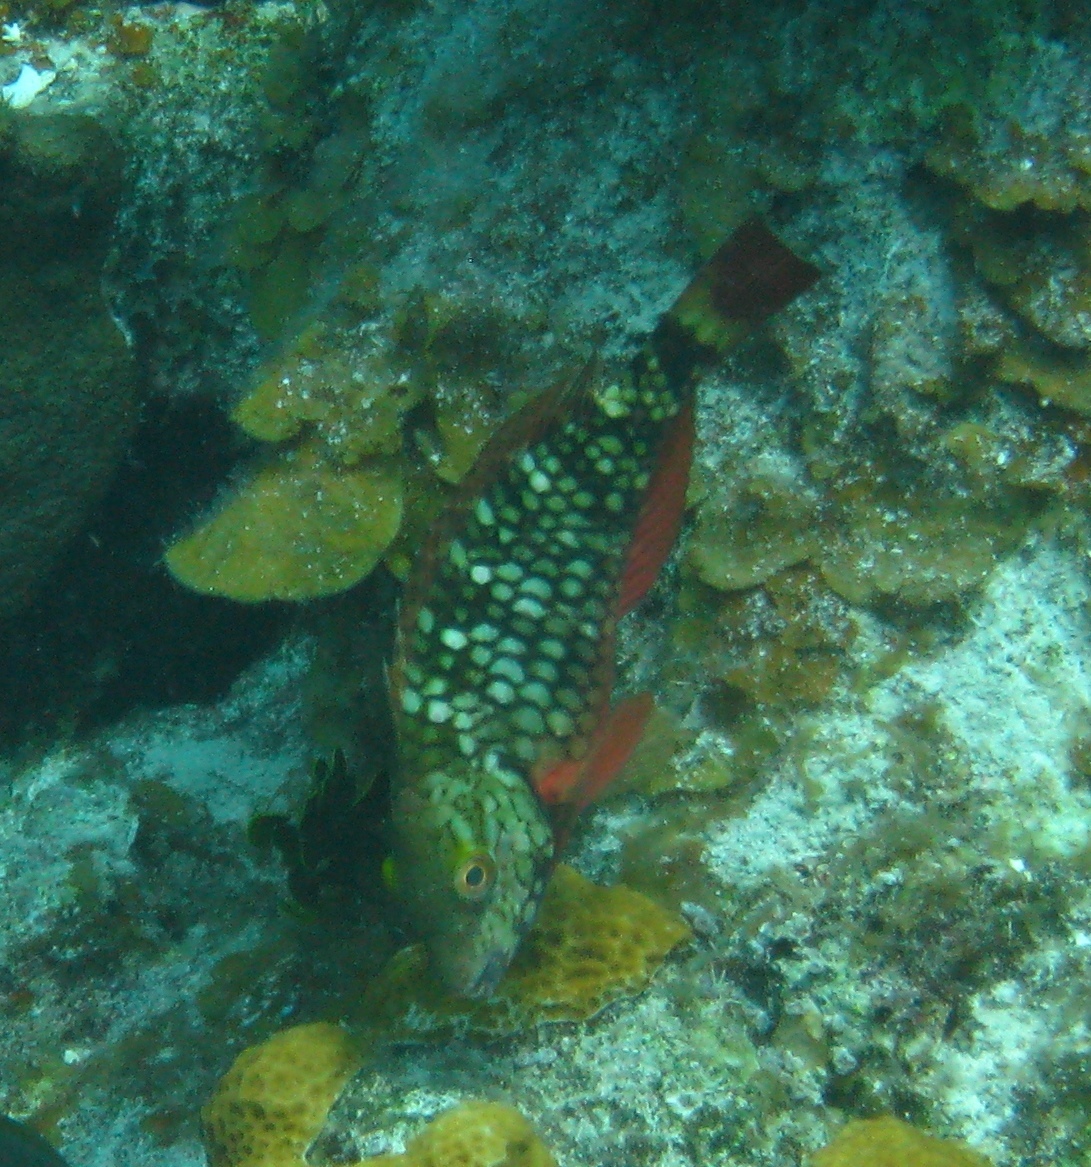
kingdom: Animalia
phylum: Chordata
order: Perciformes
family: Scaridae
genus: Sparisoma
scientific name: Sparisoma viride
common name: Stoplight parrotfish
